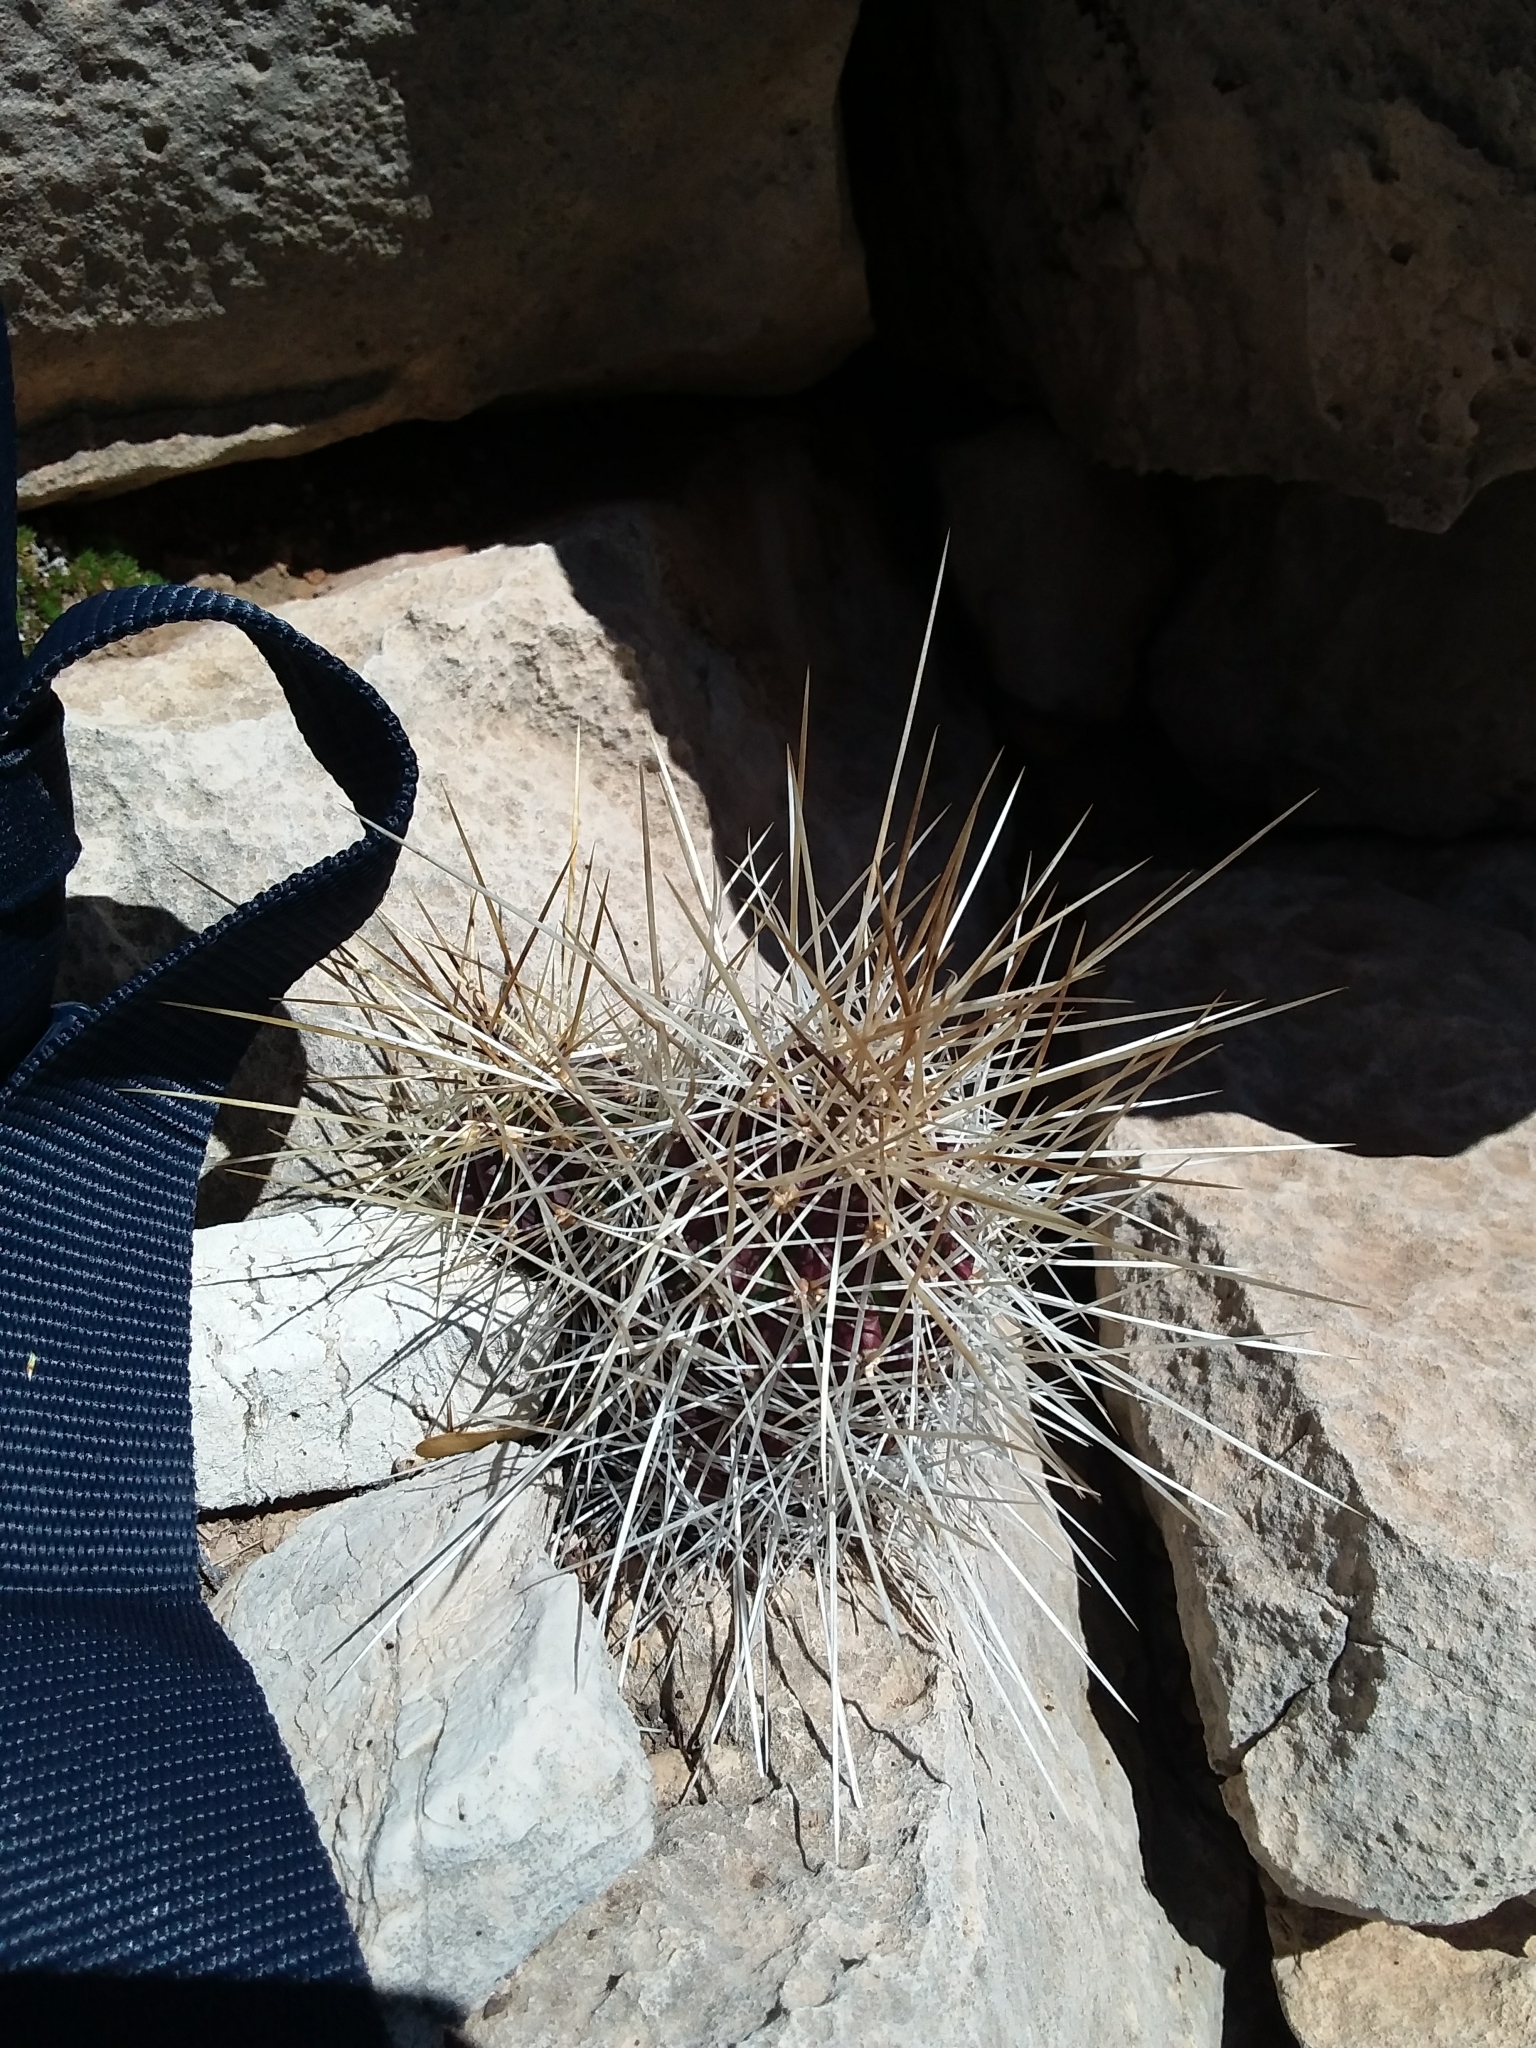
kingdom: Plantae
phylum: Tracheophyta
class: Magnoliopsida
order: Caryophyllales
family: Cactaceae
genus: Echinocereus
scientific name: Echinocereus stramineus
